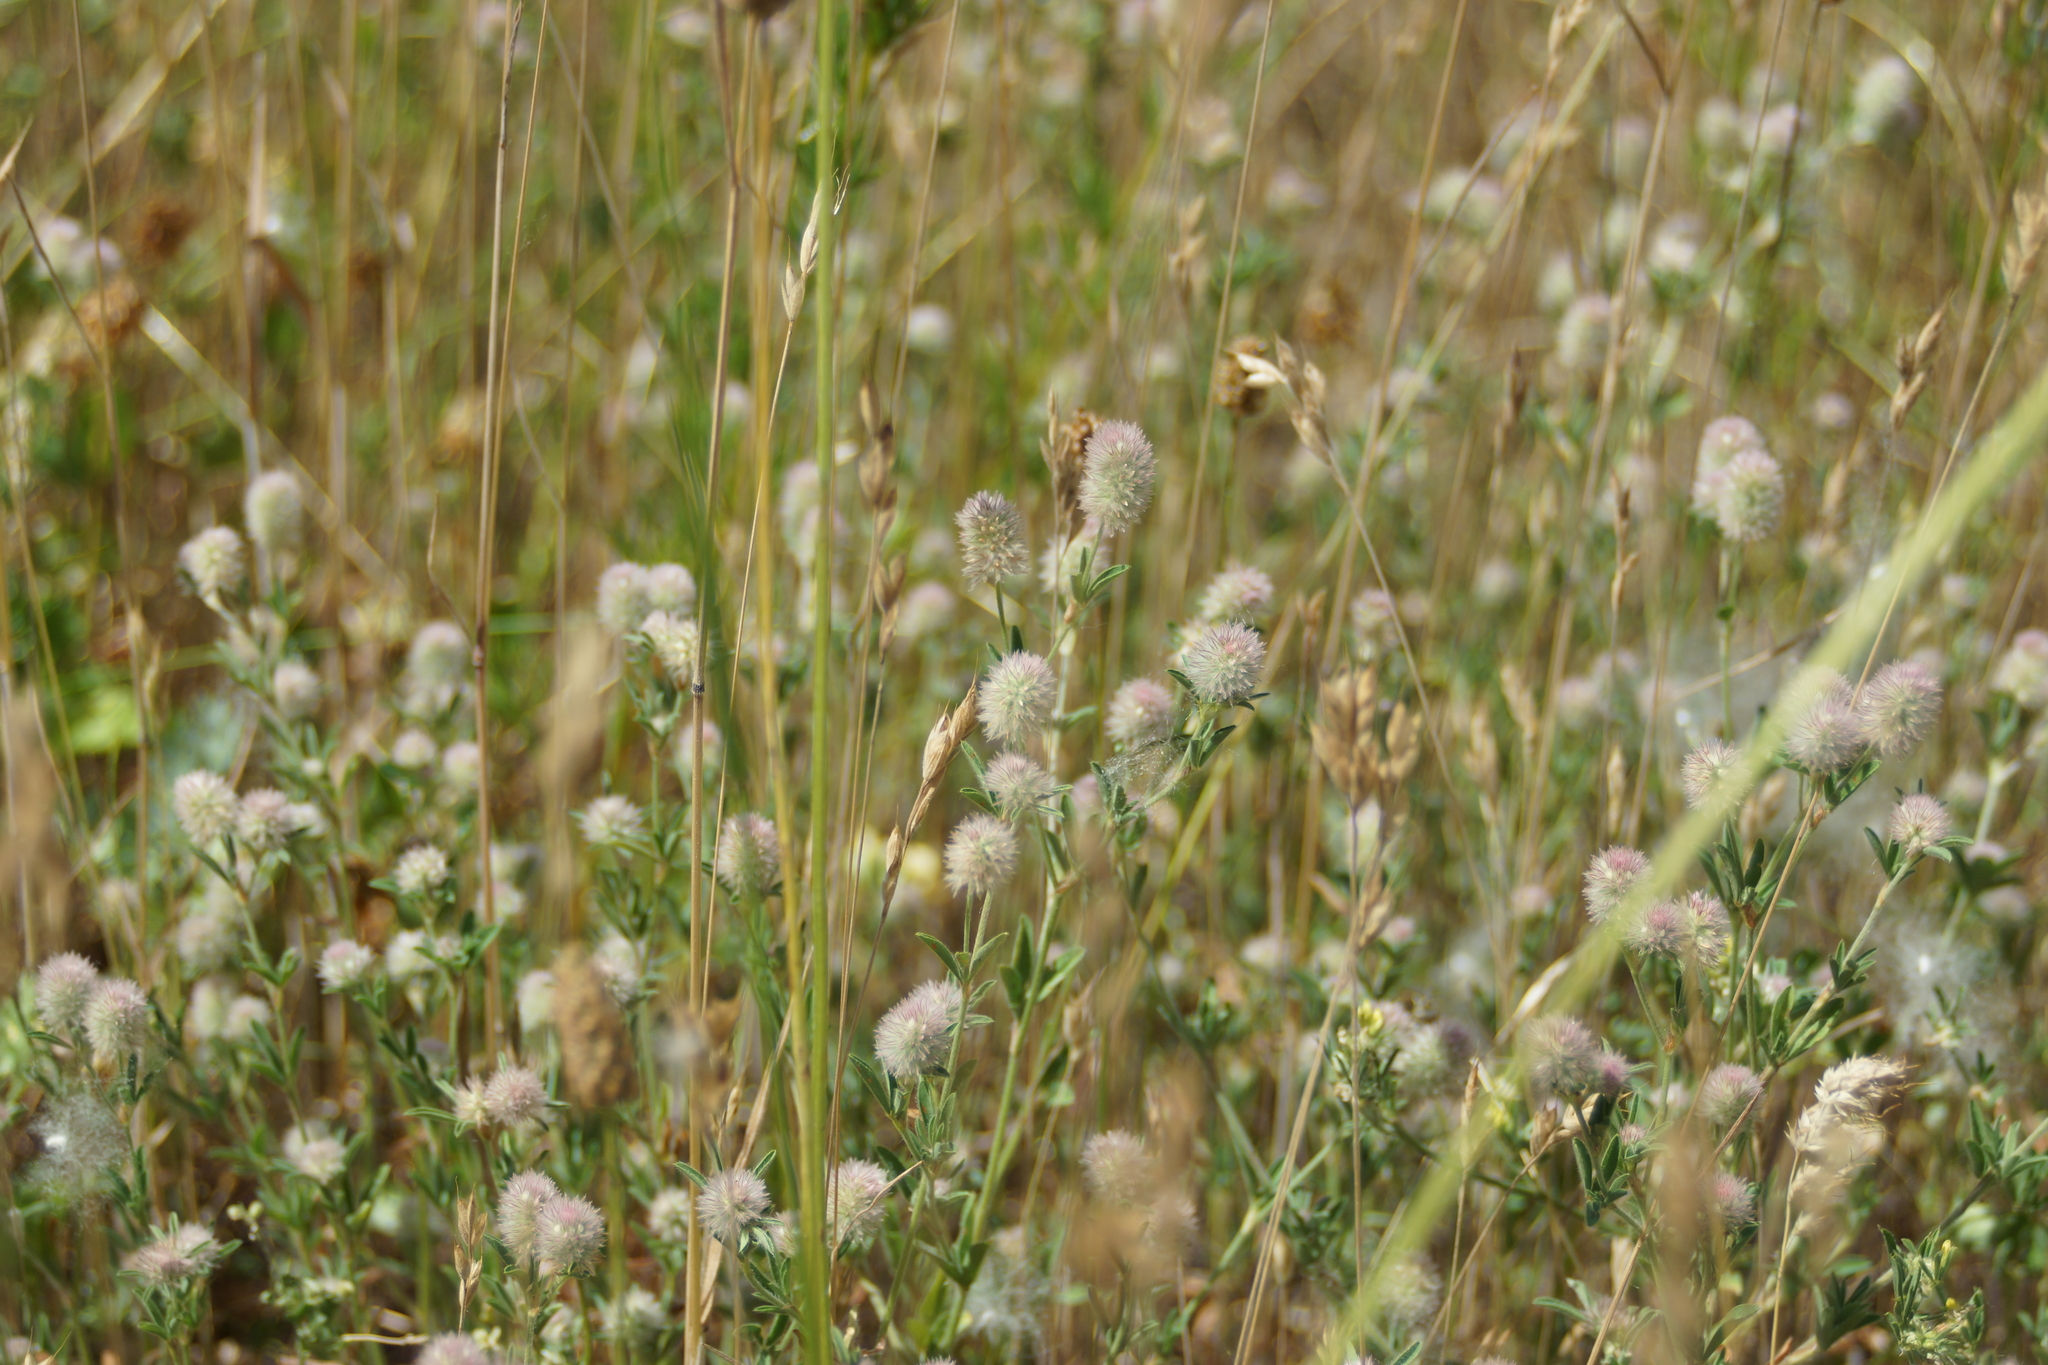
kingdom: Plantae
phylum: Tracheophyta
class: Magnoliopsida
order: Fabales
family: Fabaceae
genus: Trifolium
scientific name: Trifolium arvense
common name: Hare's-foot clover
